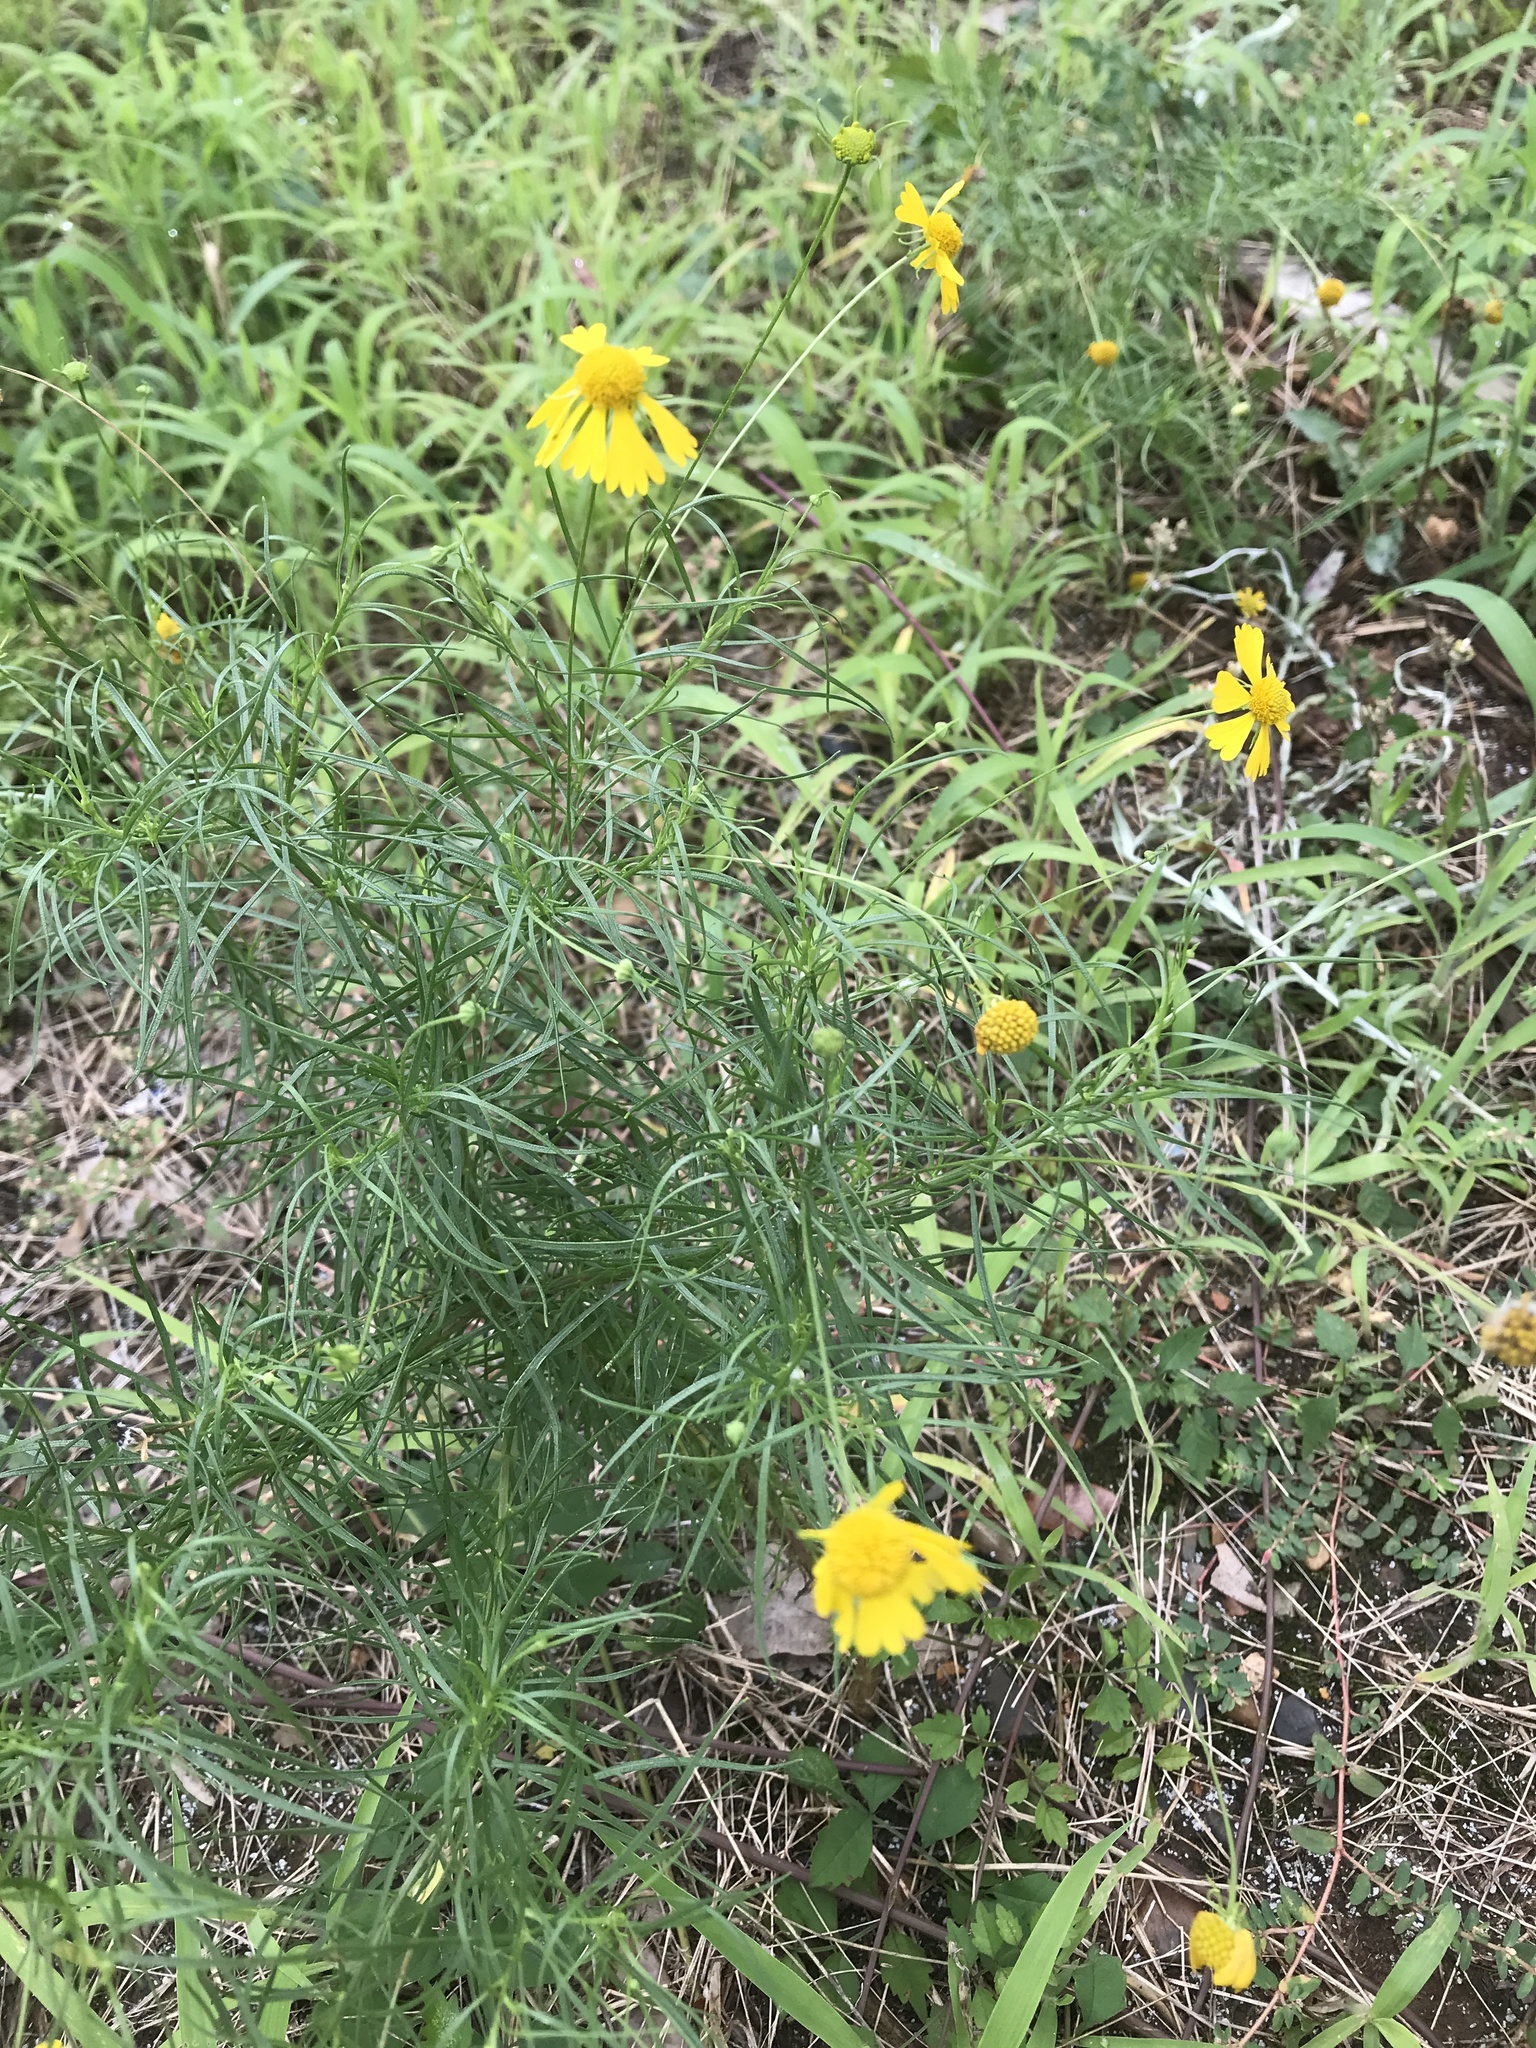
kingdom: Plantae
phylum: Tracheophyta
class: Magnoliopsida
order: Asterales
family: Asteraceae
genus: Helenium
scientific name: Helenium amarum
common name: Bitter sneezeweed
